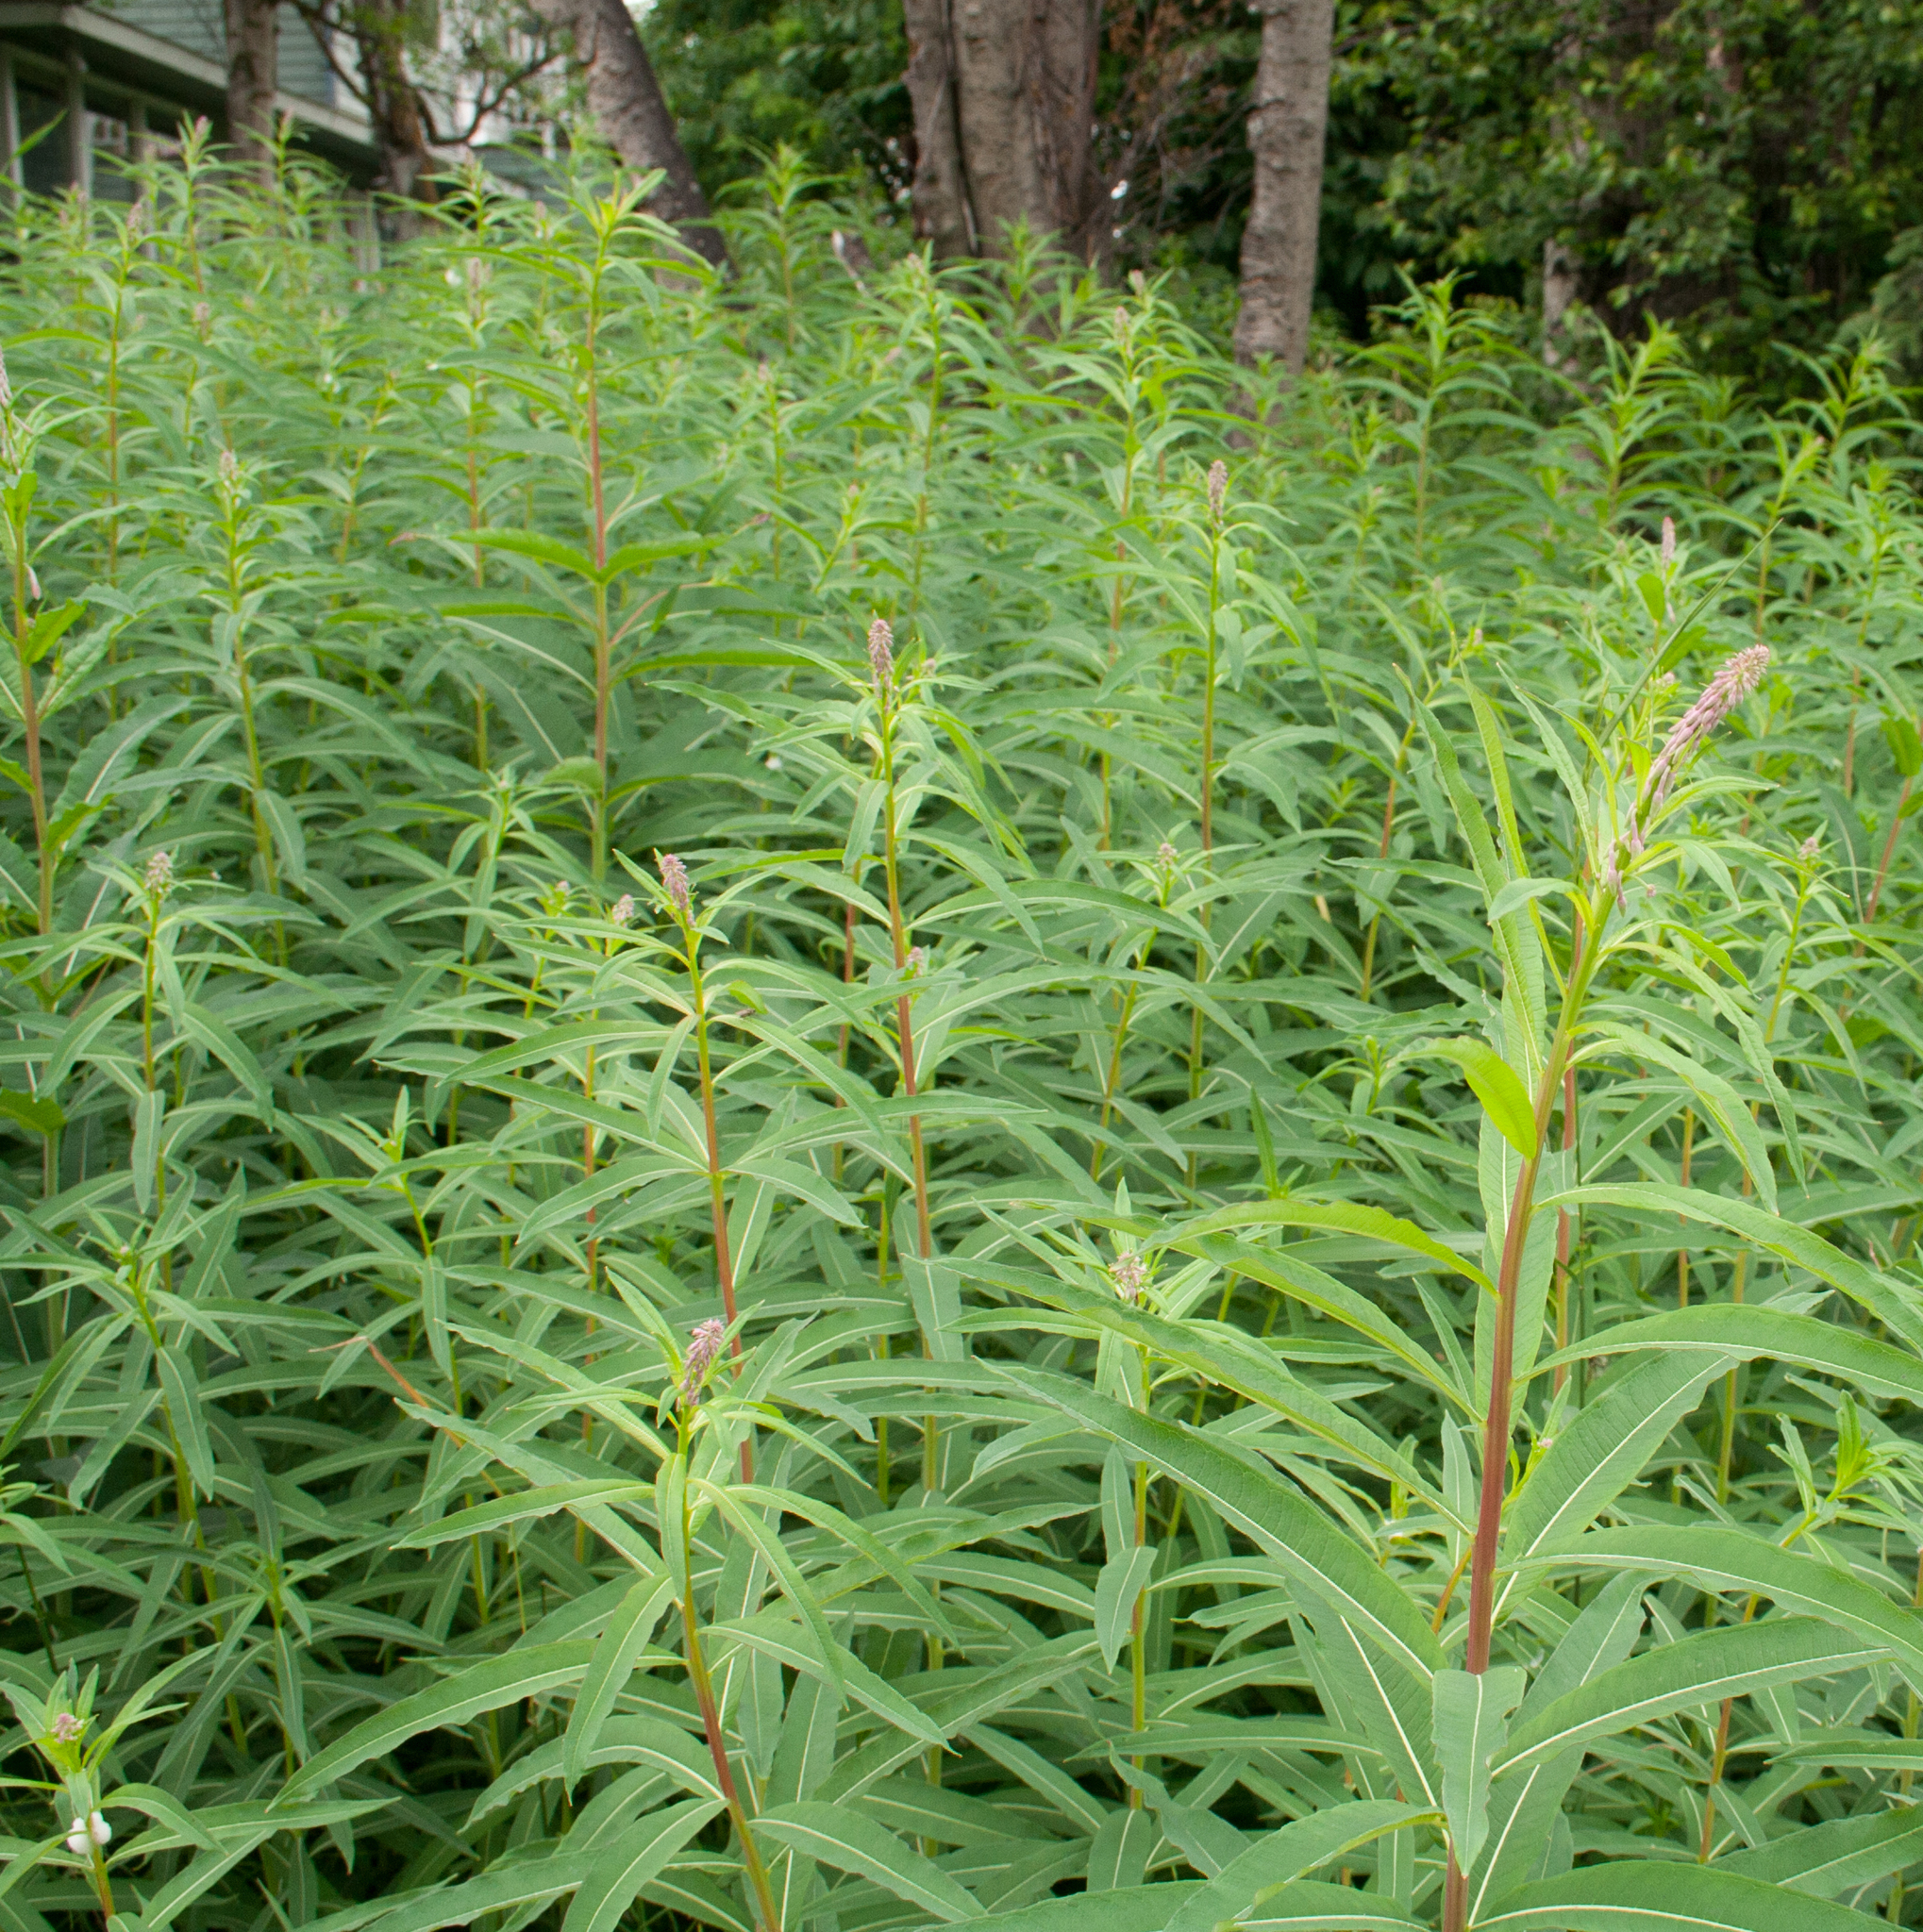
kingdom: Plantae
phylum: Tracheophyta
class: Magnoliopsida
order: Myrtales
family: Onagraceae
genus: Chamaenerion
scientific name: Chamaenerion angustifolium
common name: Fireweed
